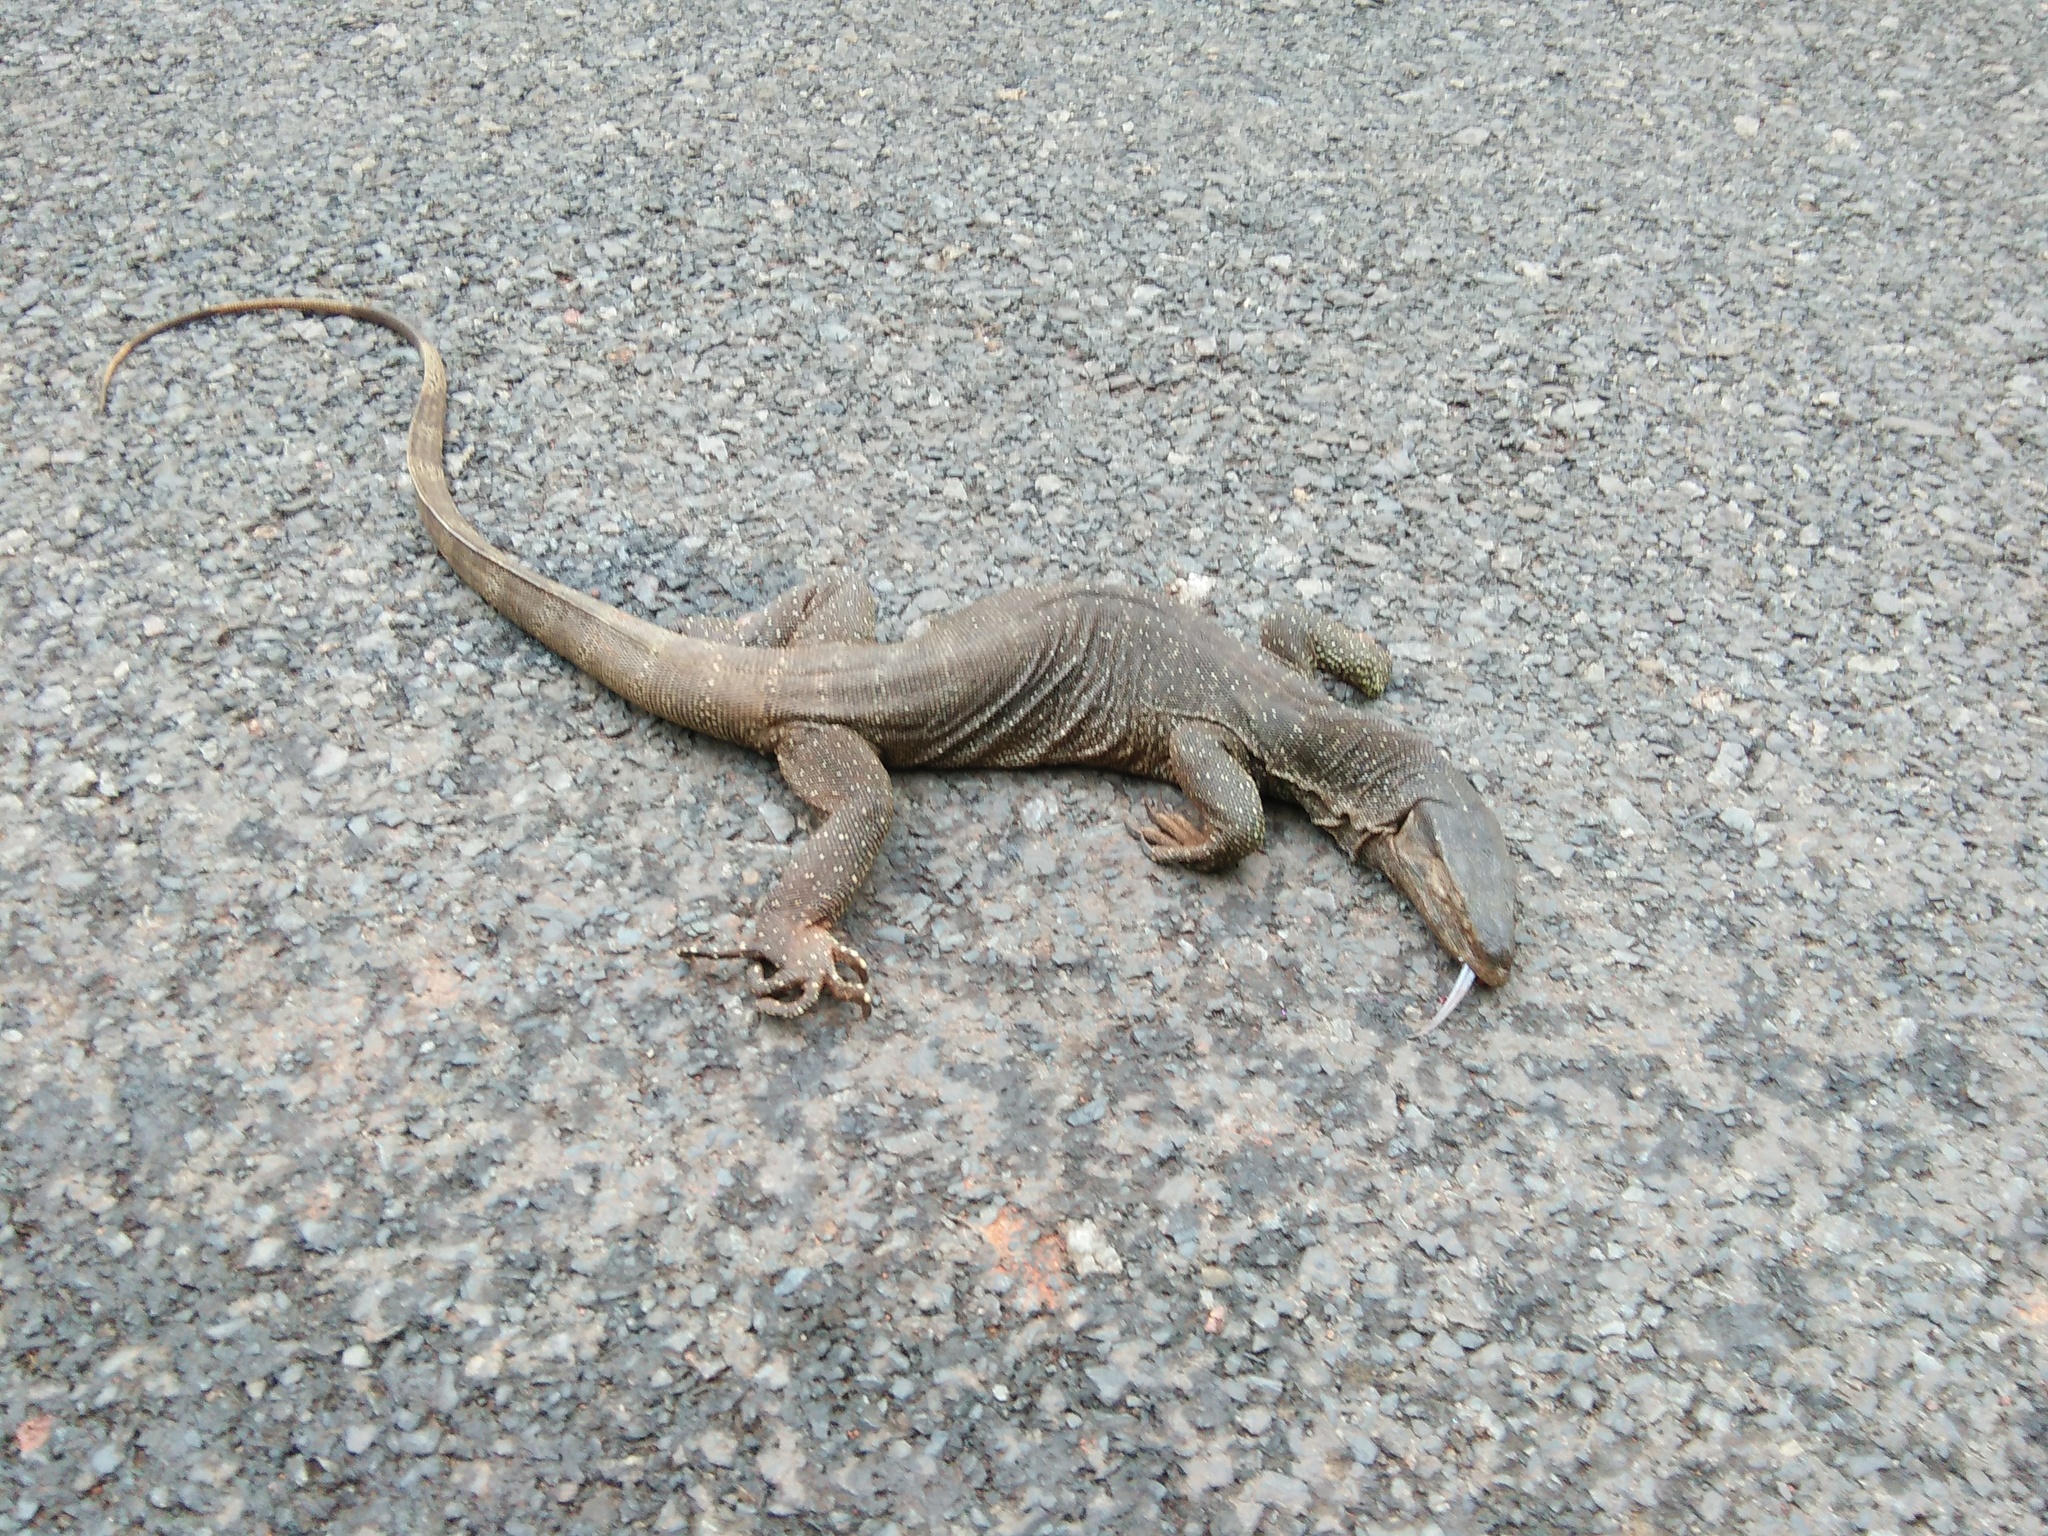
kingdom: Animalia
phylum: Chordata
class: Squamata
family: Varanidae
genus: Varanus
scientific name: Varanus bengalensis
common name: Bengal monitor
